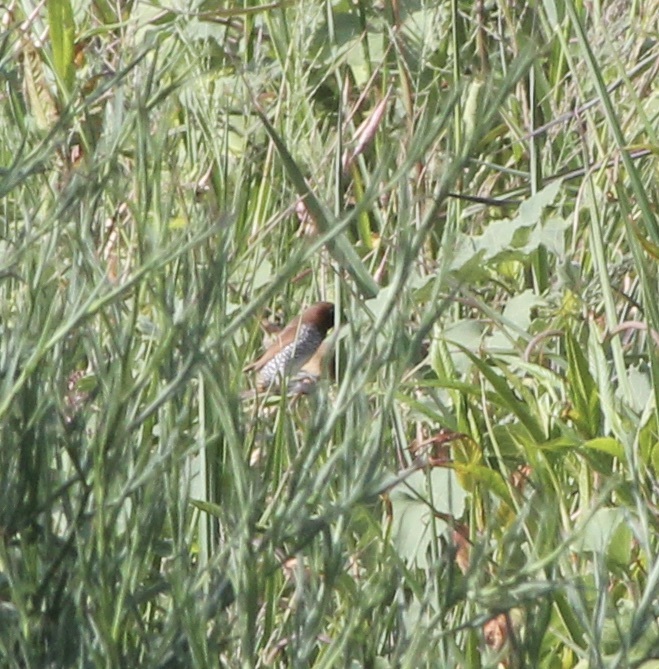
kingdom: Animalia
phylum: Chordata
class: Aves
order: Passeriformes
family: Estrildidae
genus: Lonchura
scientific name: Lonchura punctulata
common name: Scaly-breasted munia
